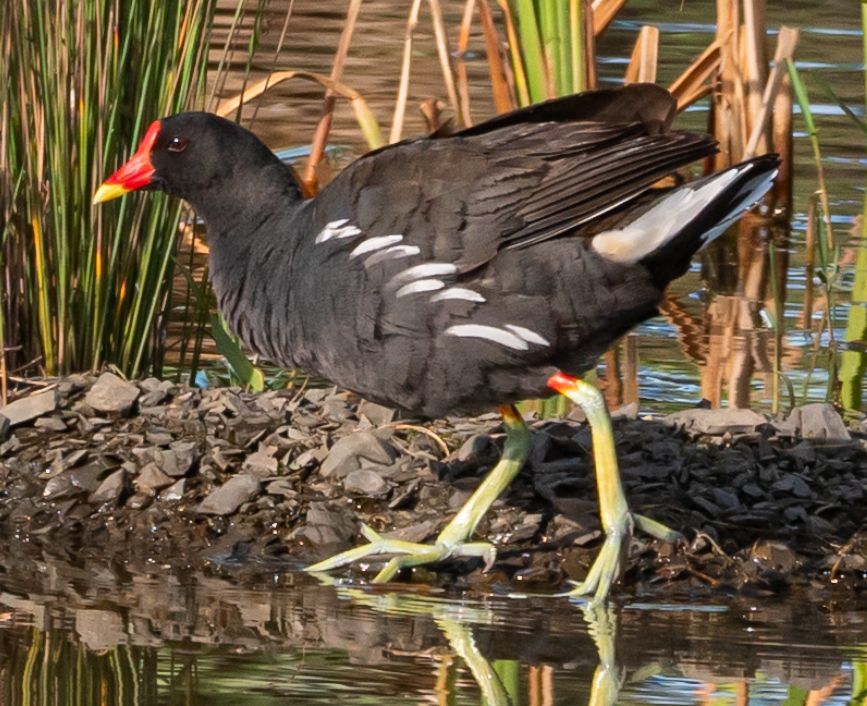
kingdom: Animalia
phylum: Chordata
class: Aves
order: Gruiformes
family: Rallidae
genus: Gallinula
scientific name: Gallinula chloropus
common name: Common moorhen
